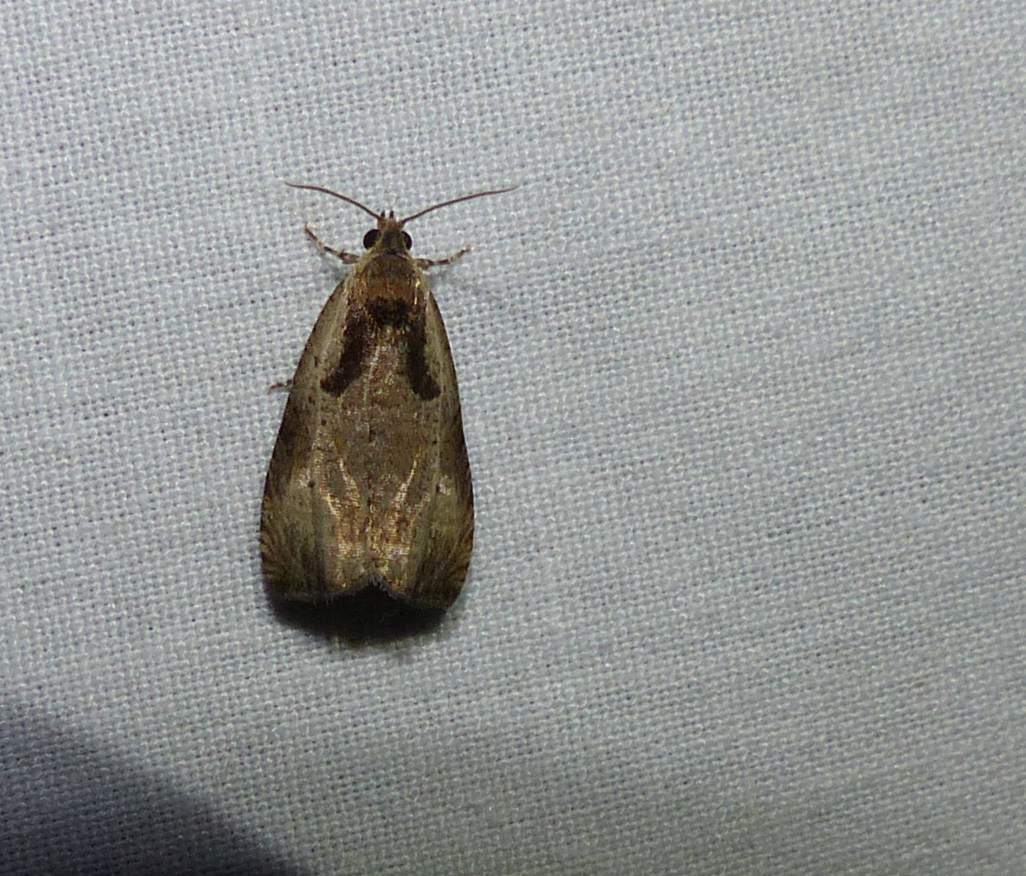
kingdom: Animalia
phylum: Arthropoda
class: Insecta
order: Lepidoptera
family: Tortricidae
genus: Olethreutes
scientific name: Olethreutes exoletum
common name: Wretched olethreutes moth
